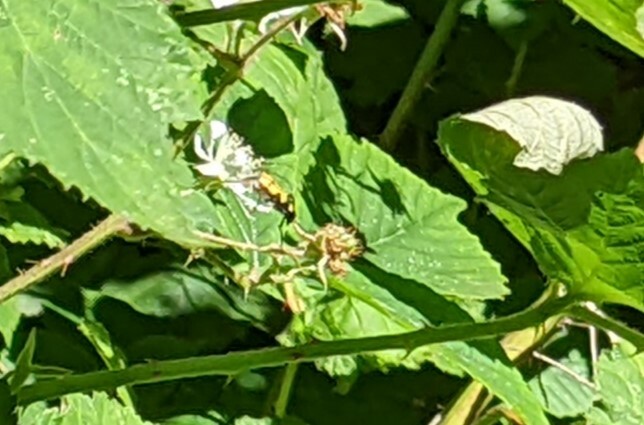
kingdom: Animalia
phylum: Arthropoda
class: Insecta
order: Coleoptera
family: Cerambycidae
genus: Rutpela
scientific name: Rutpela maculata
